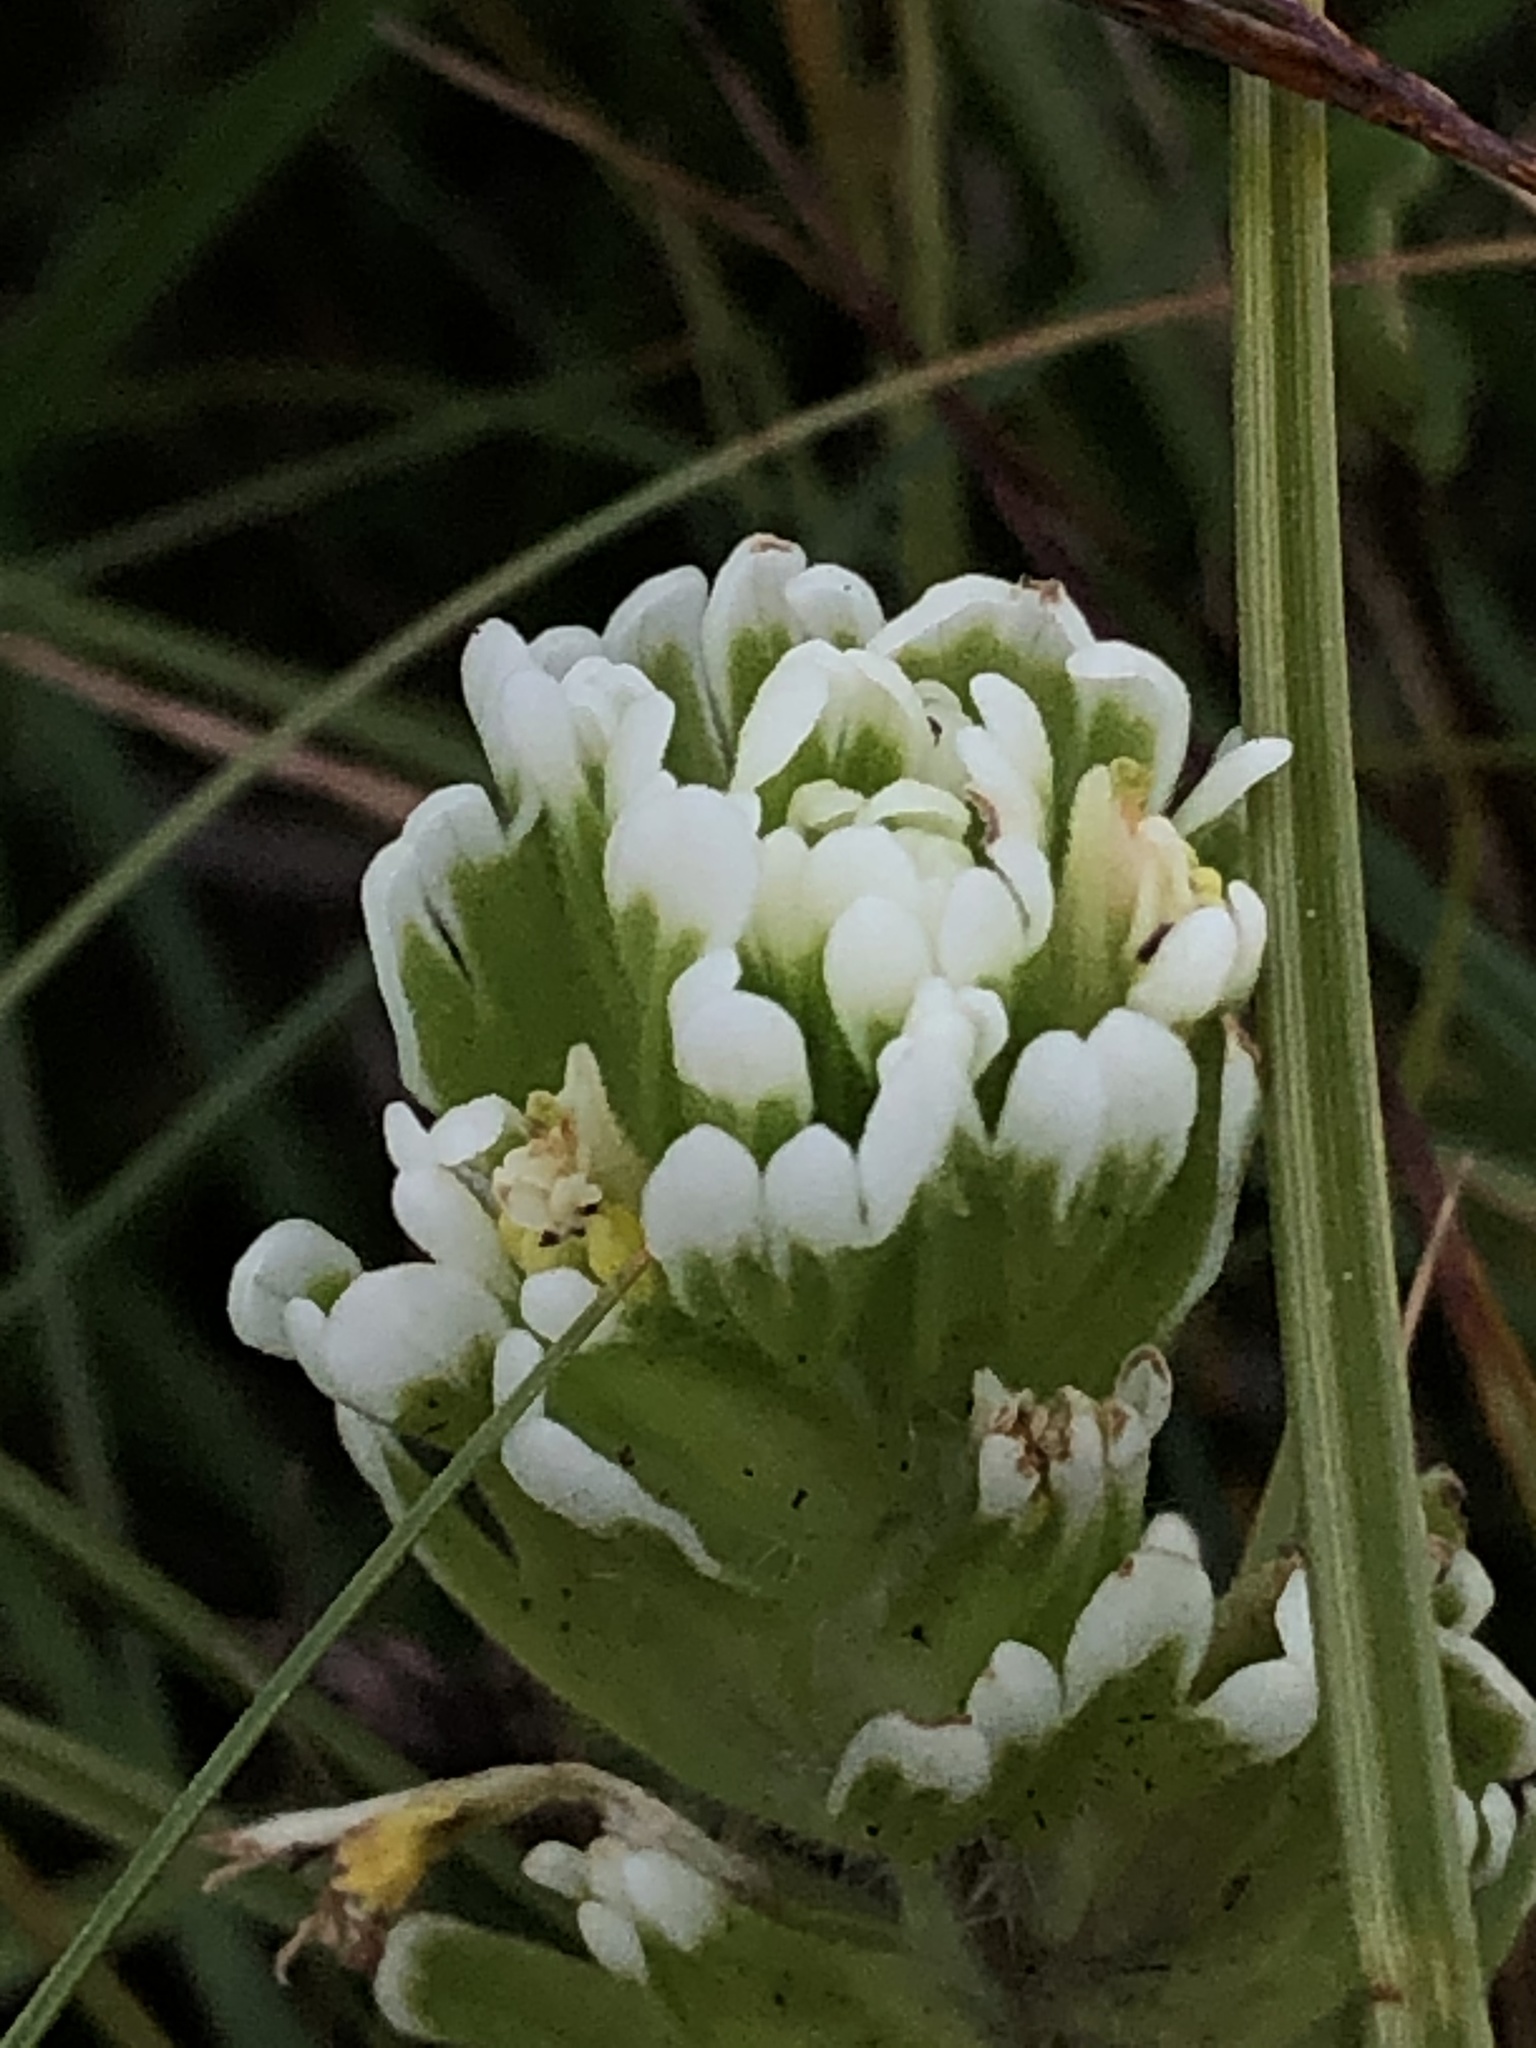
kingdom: Plantae
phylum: Tracheophyta
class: Magnoliopsida
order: Lamiales
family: Orobanchaceae
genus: Castilleja
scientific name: Castilleja ambigua
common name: Johnny-nip
